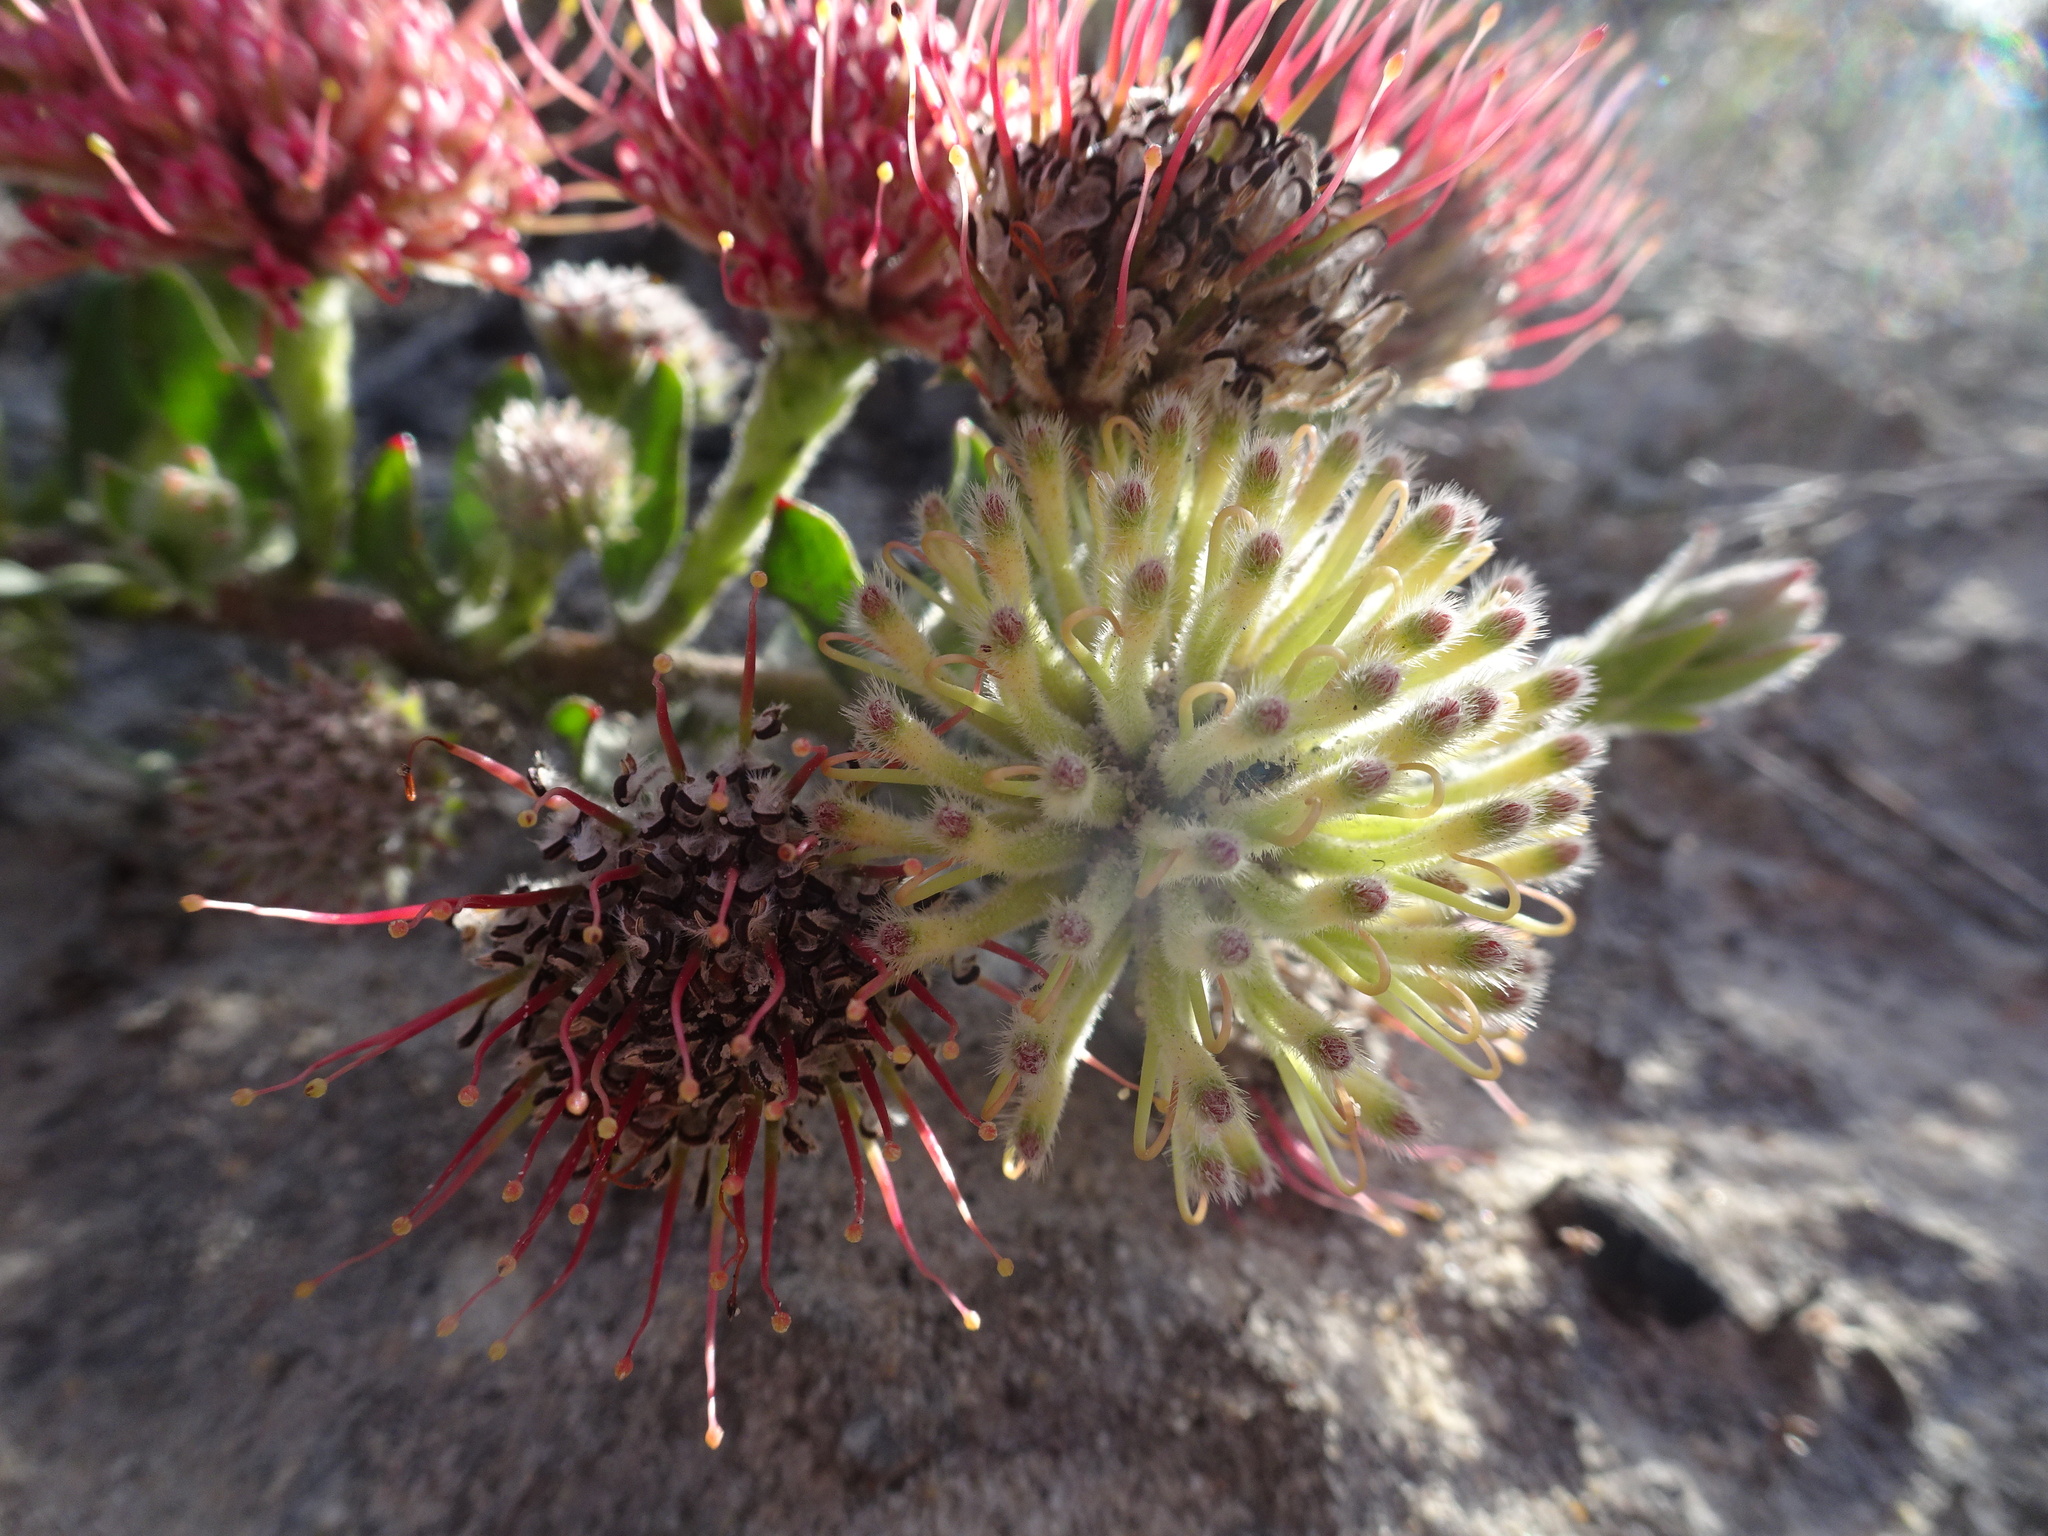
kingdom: Plantae
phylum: Tracheophyta
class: Magnoliopsida
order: Proteales
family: Proteaceae
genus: Leucospermum
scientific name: Leucospermum heterophyllum
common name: Trident pincushion
